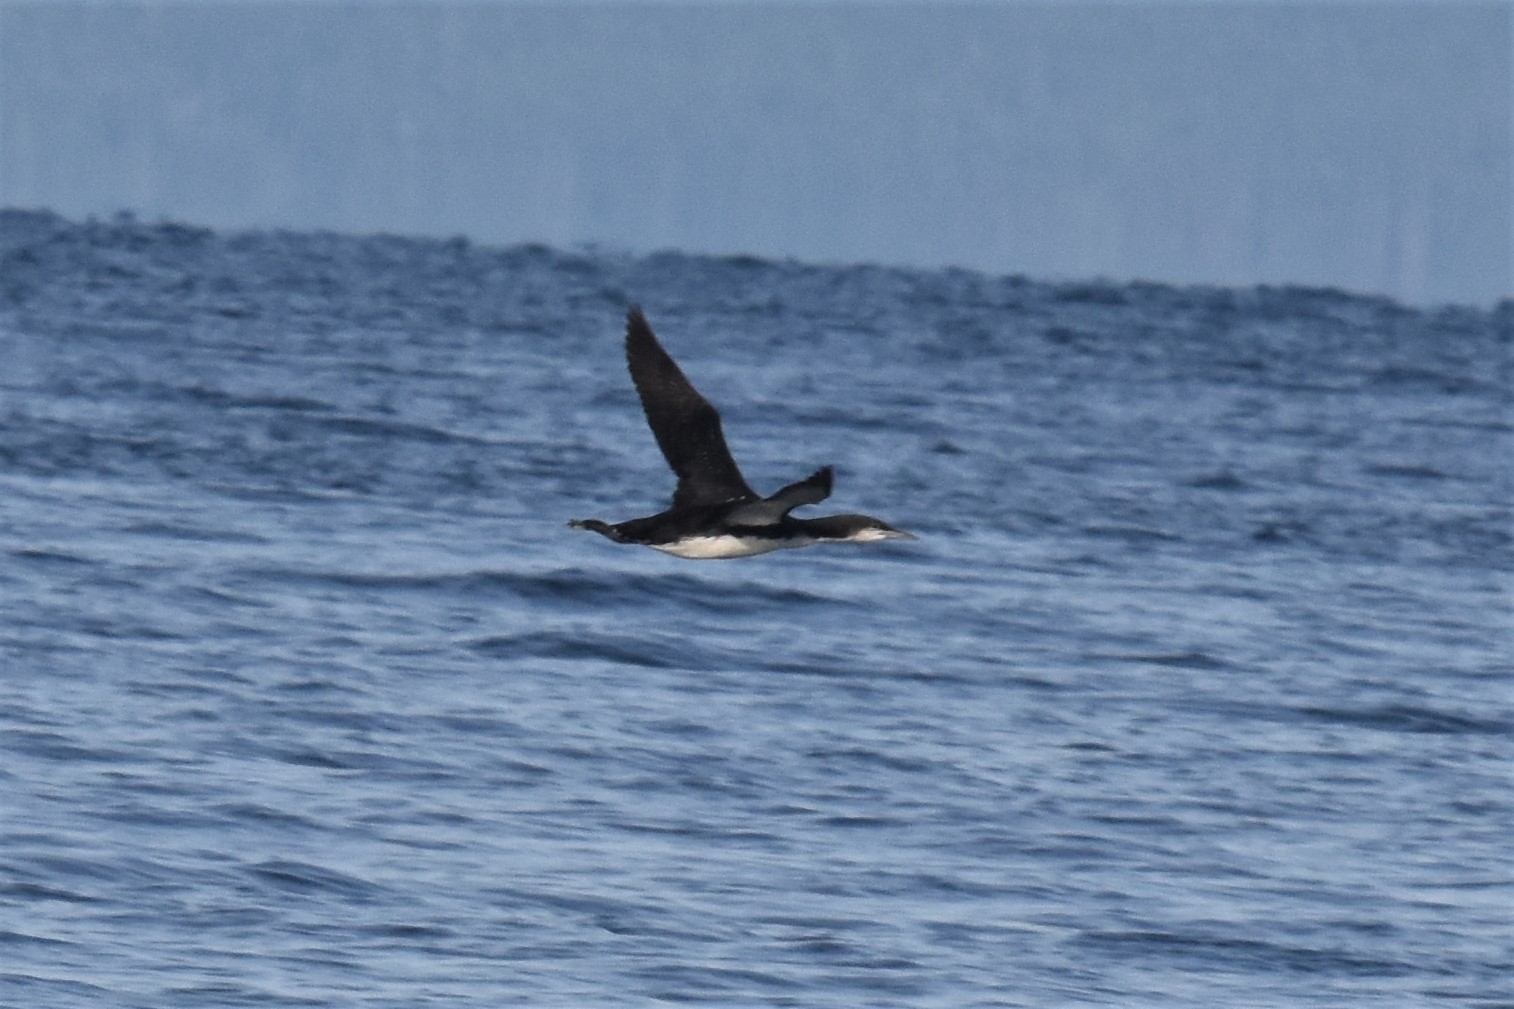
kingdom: Animalia
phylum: Chordata
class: Aves
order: Gaviiformes
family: Gaviidae
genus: Gavia
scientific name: Gavia pacifica
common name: Pacific loon
